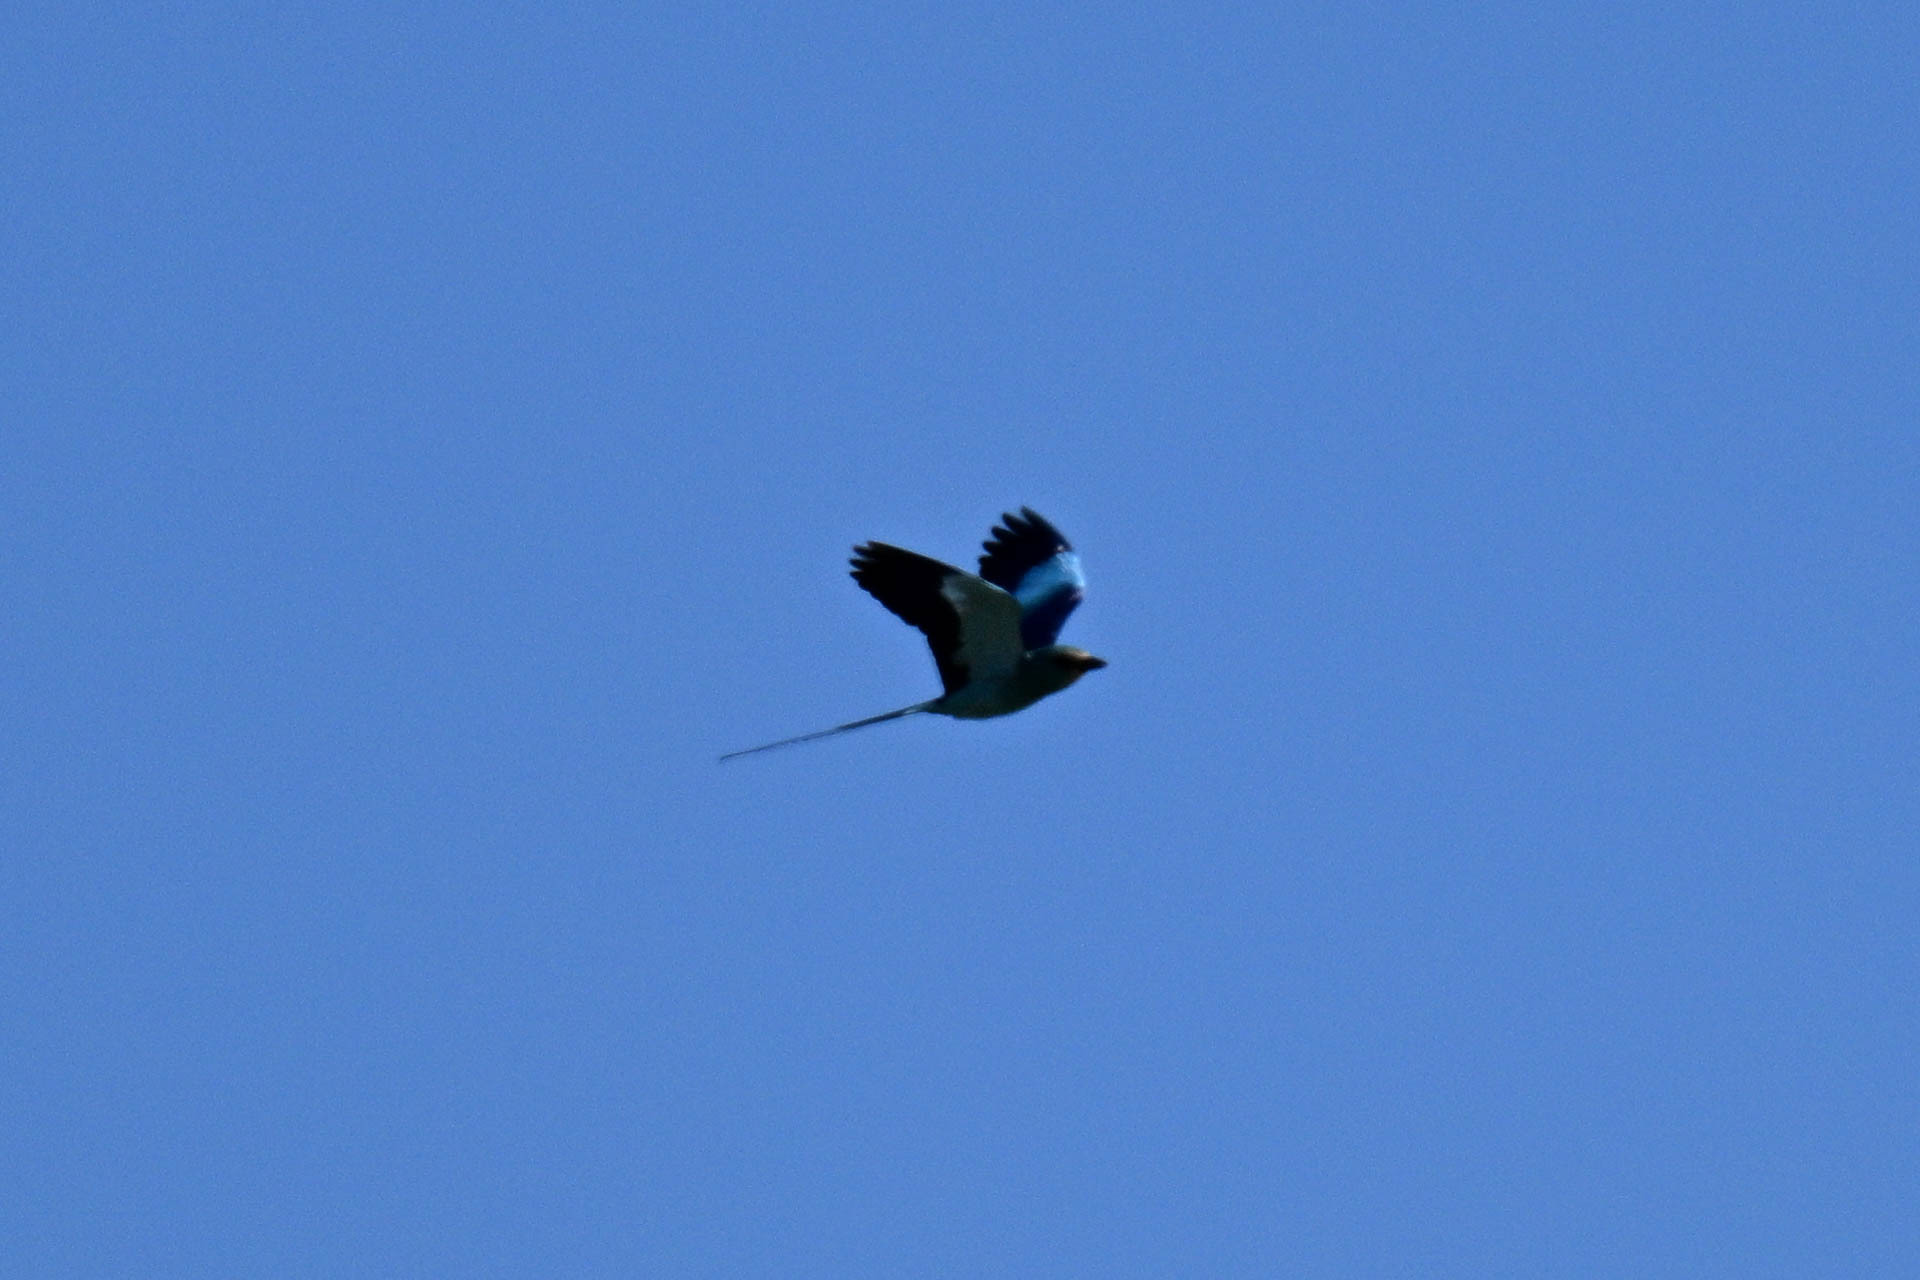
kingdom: Animalia
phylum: Chordata
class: Aves
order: Coraciiformes
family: Coraciidae
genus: Coracias
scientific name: Coracias abyssinicus
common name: Abyssinian roller
